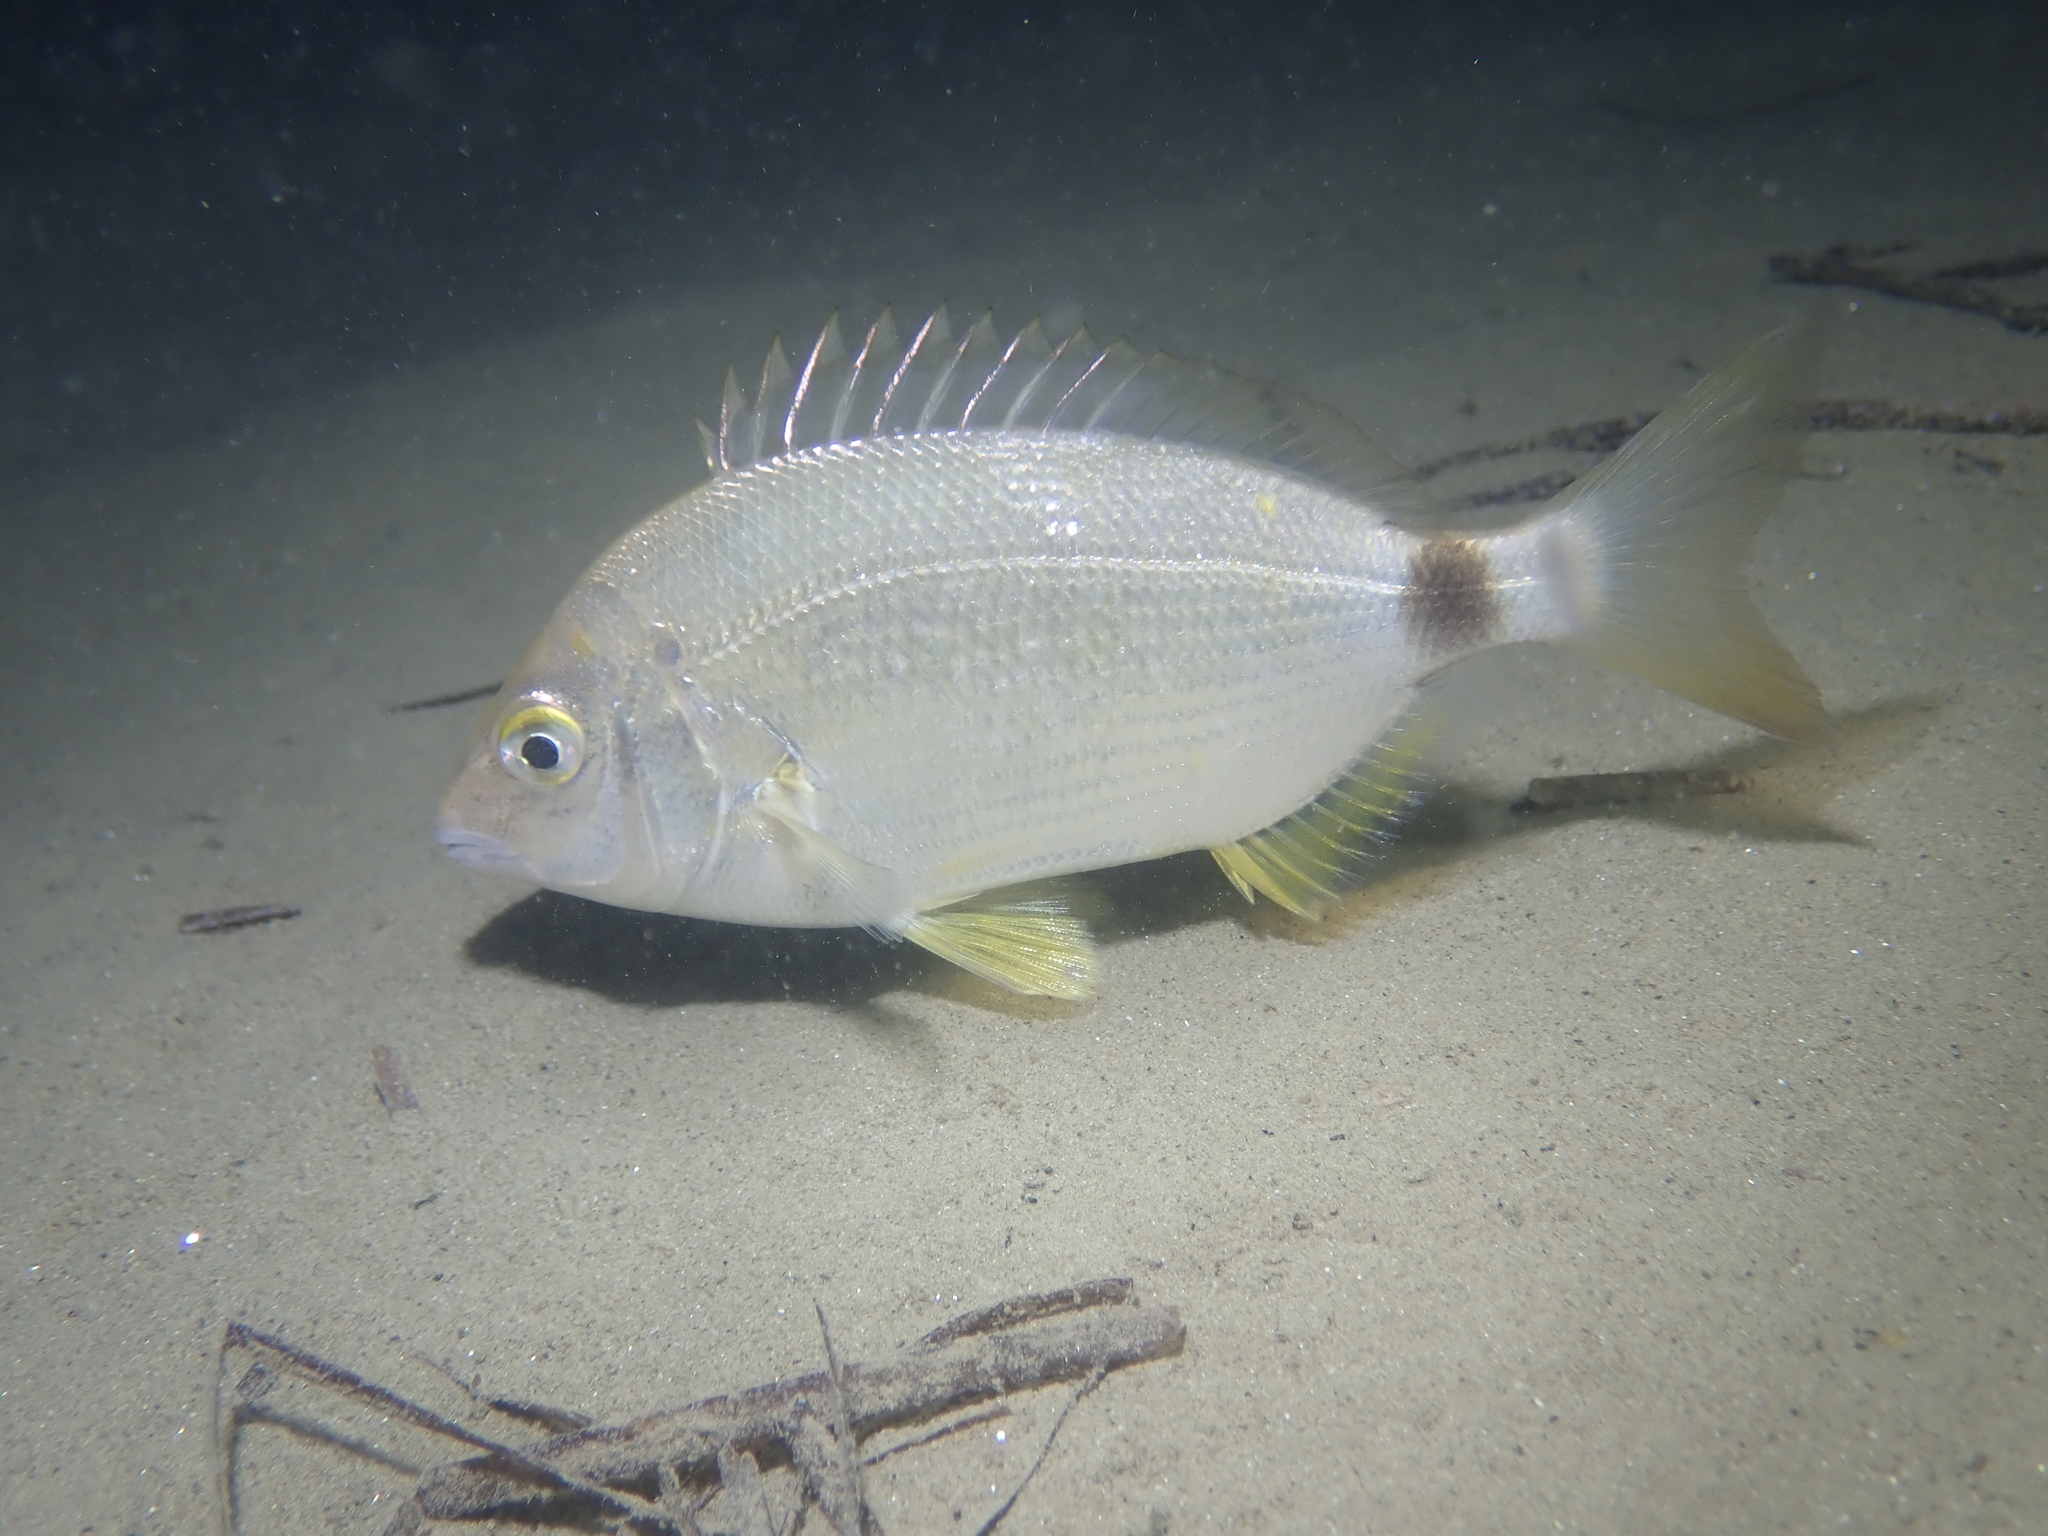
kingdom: Animalia
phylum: Chordata
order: Perciformes
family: Sparidae
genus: Diplodus
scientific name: Diplodus annularis
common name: Annular seabream
